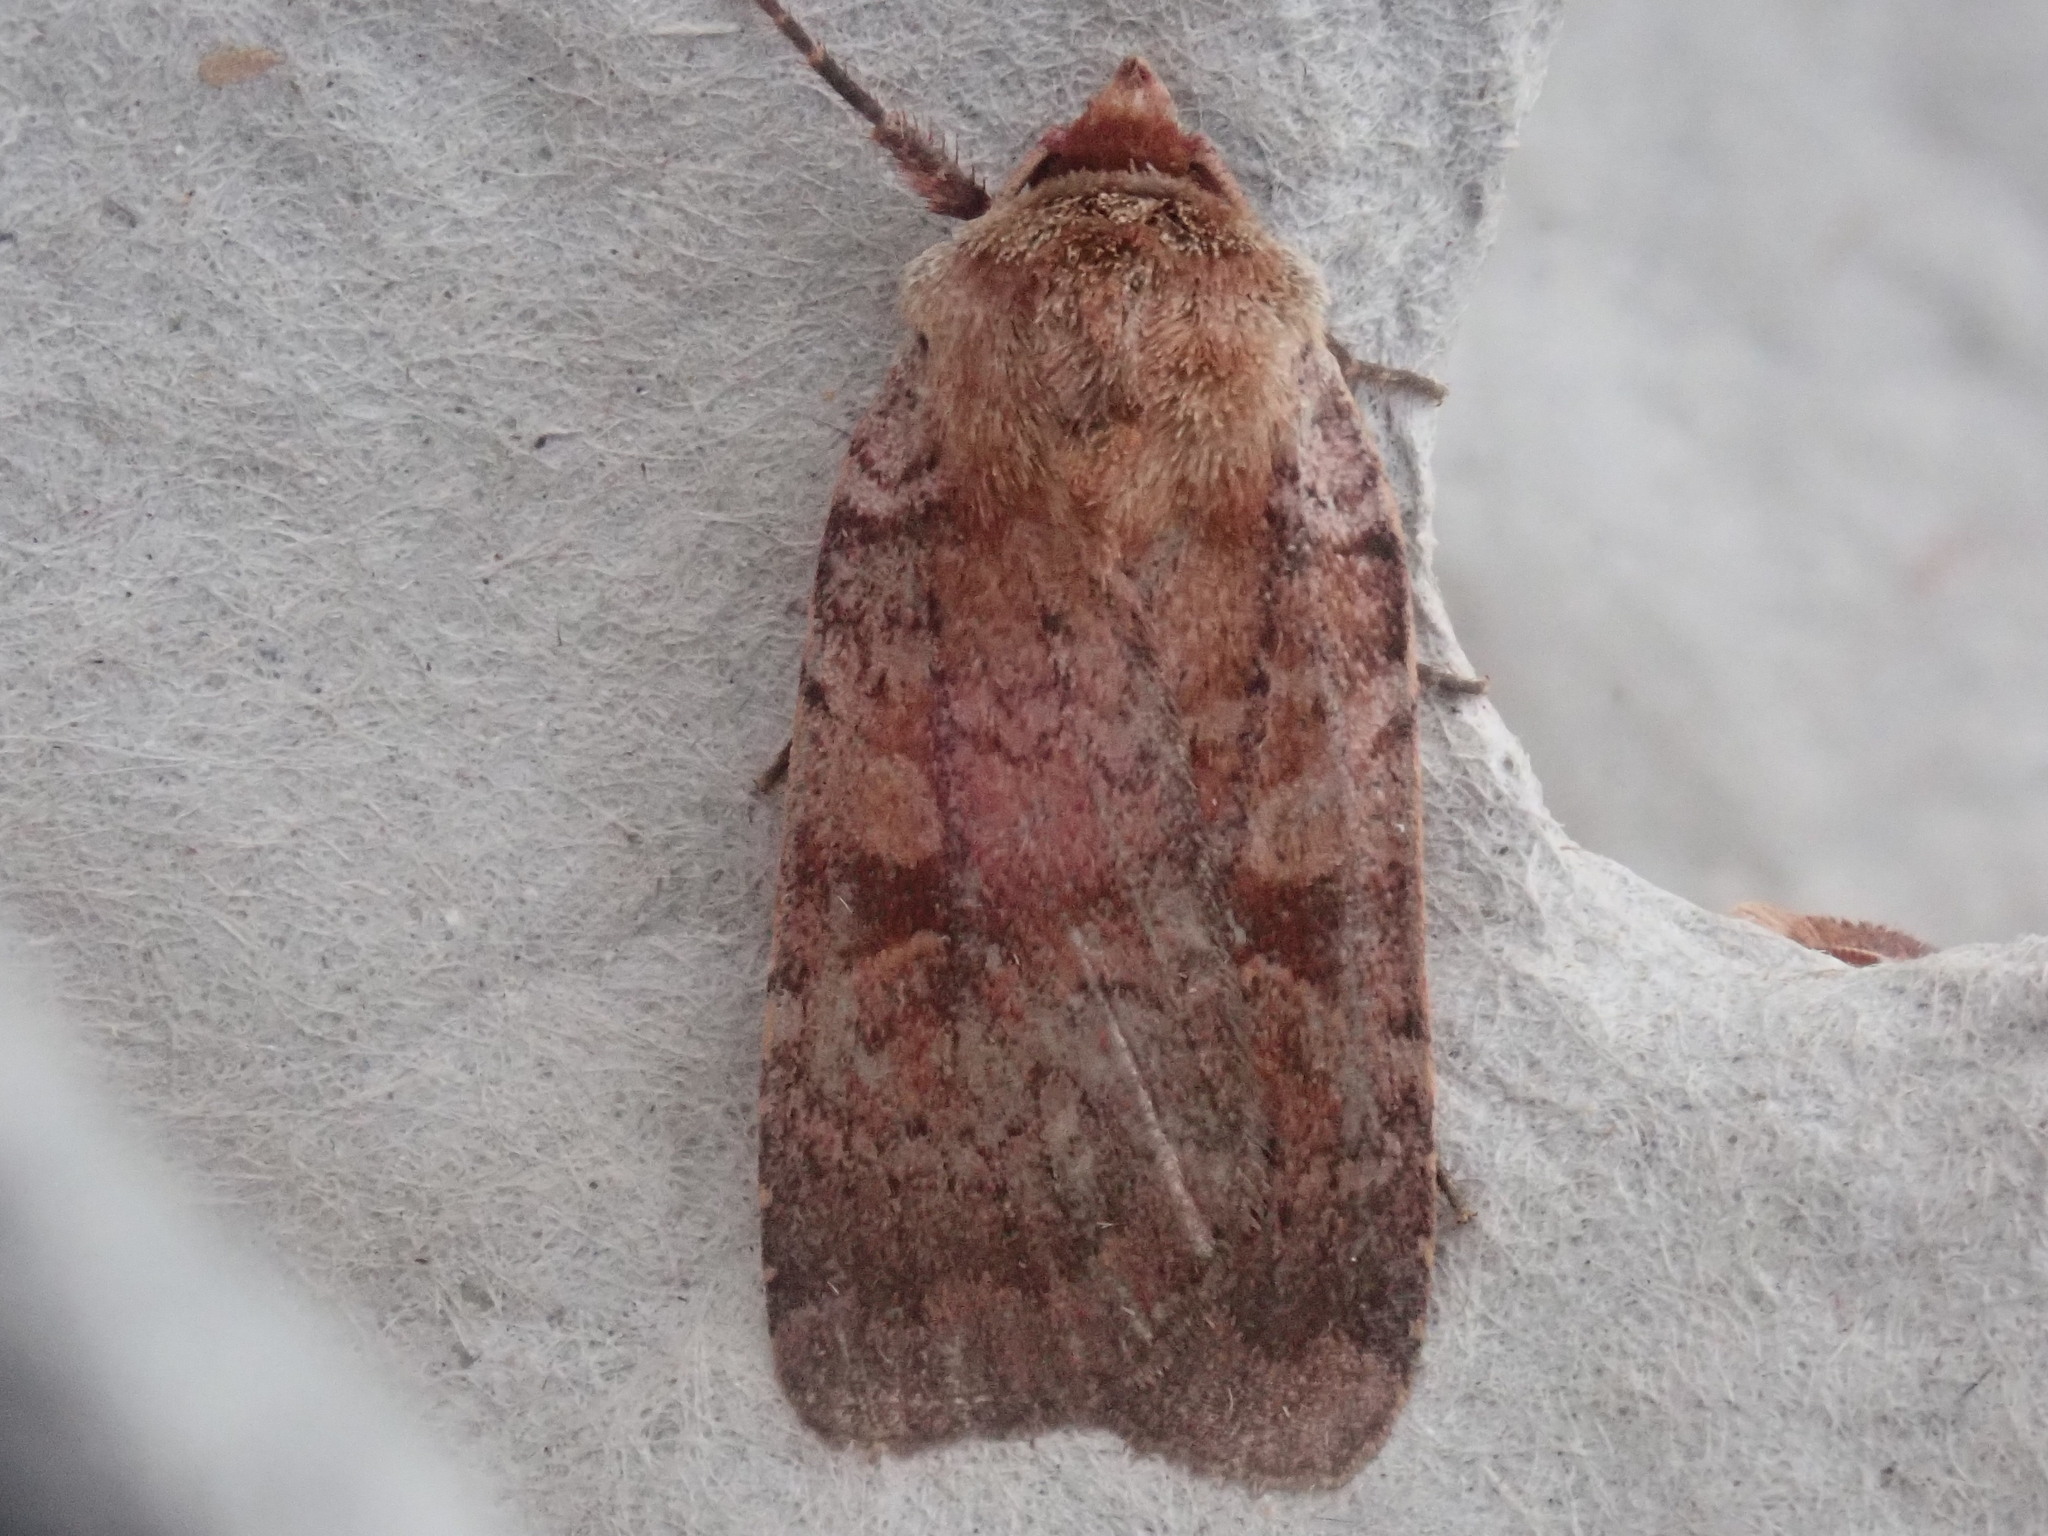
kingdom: Animalia
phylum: Arthropoda
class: Insecta
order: Lepidoptera
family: Noctuidae
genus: Lycophotia
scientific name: Lycophotia phyllophora
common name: Lycophotia moth
